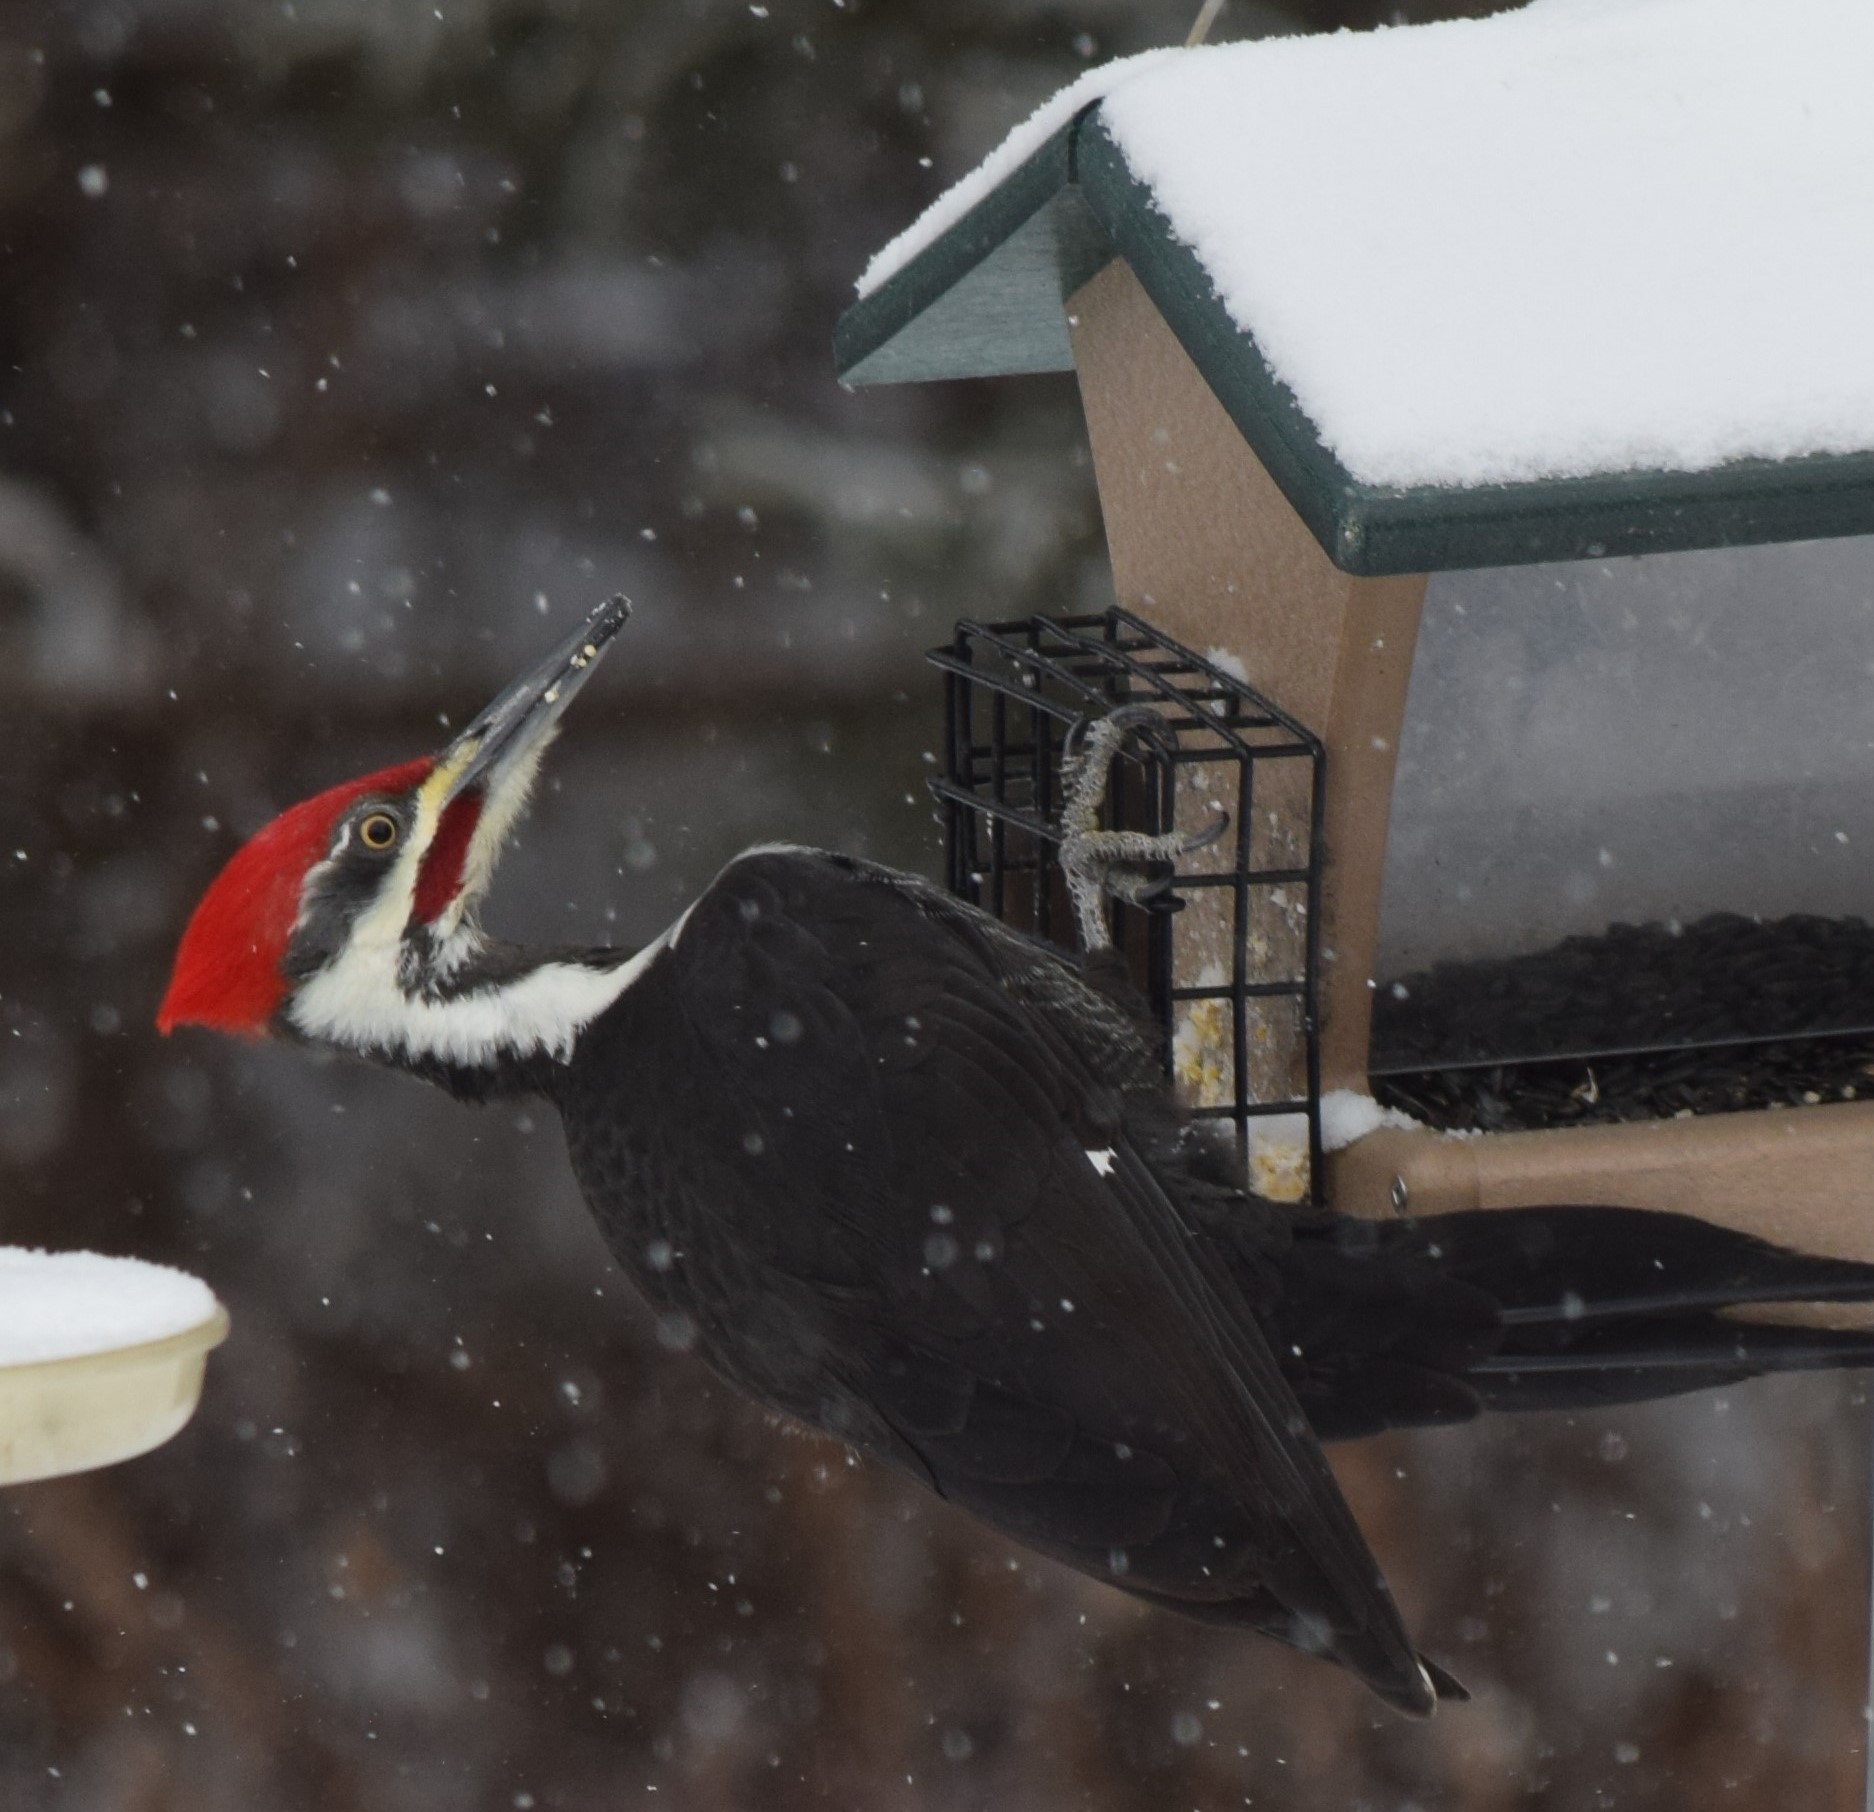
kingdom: Animalia
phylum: Chordata
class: Aves
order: Piciformes
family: Picidae
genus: Dryocopus
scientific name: Dryocopus pileatus
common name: Pileated woodpecker
